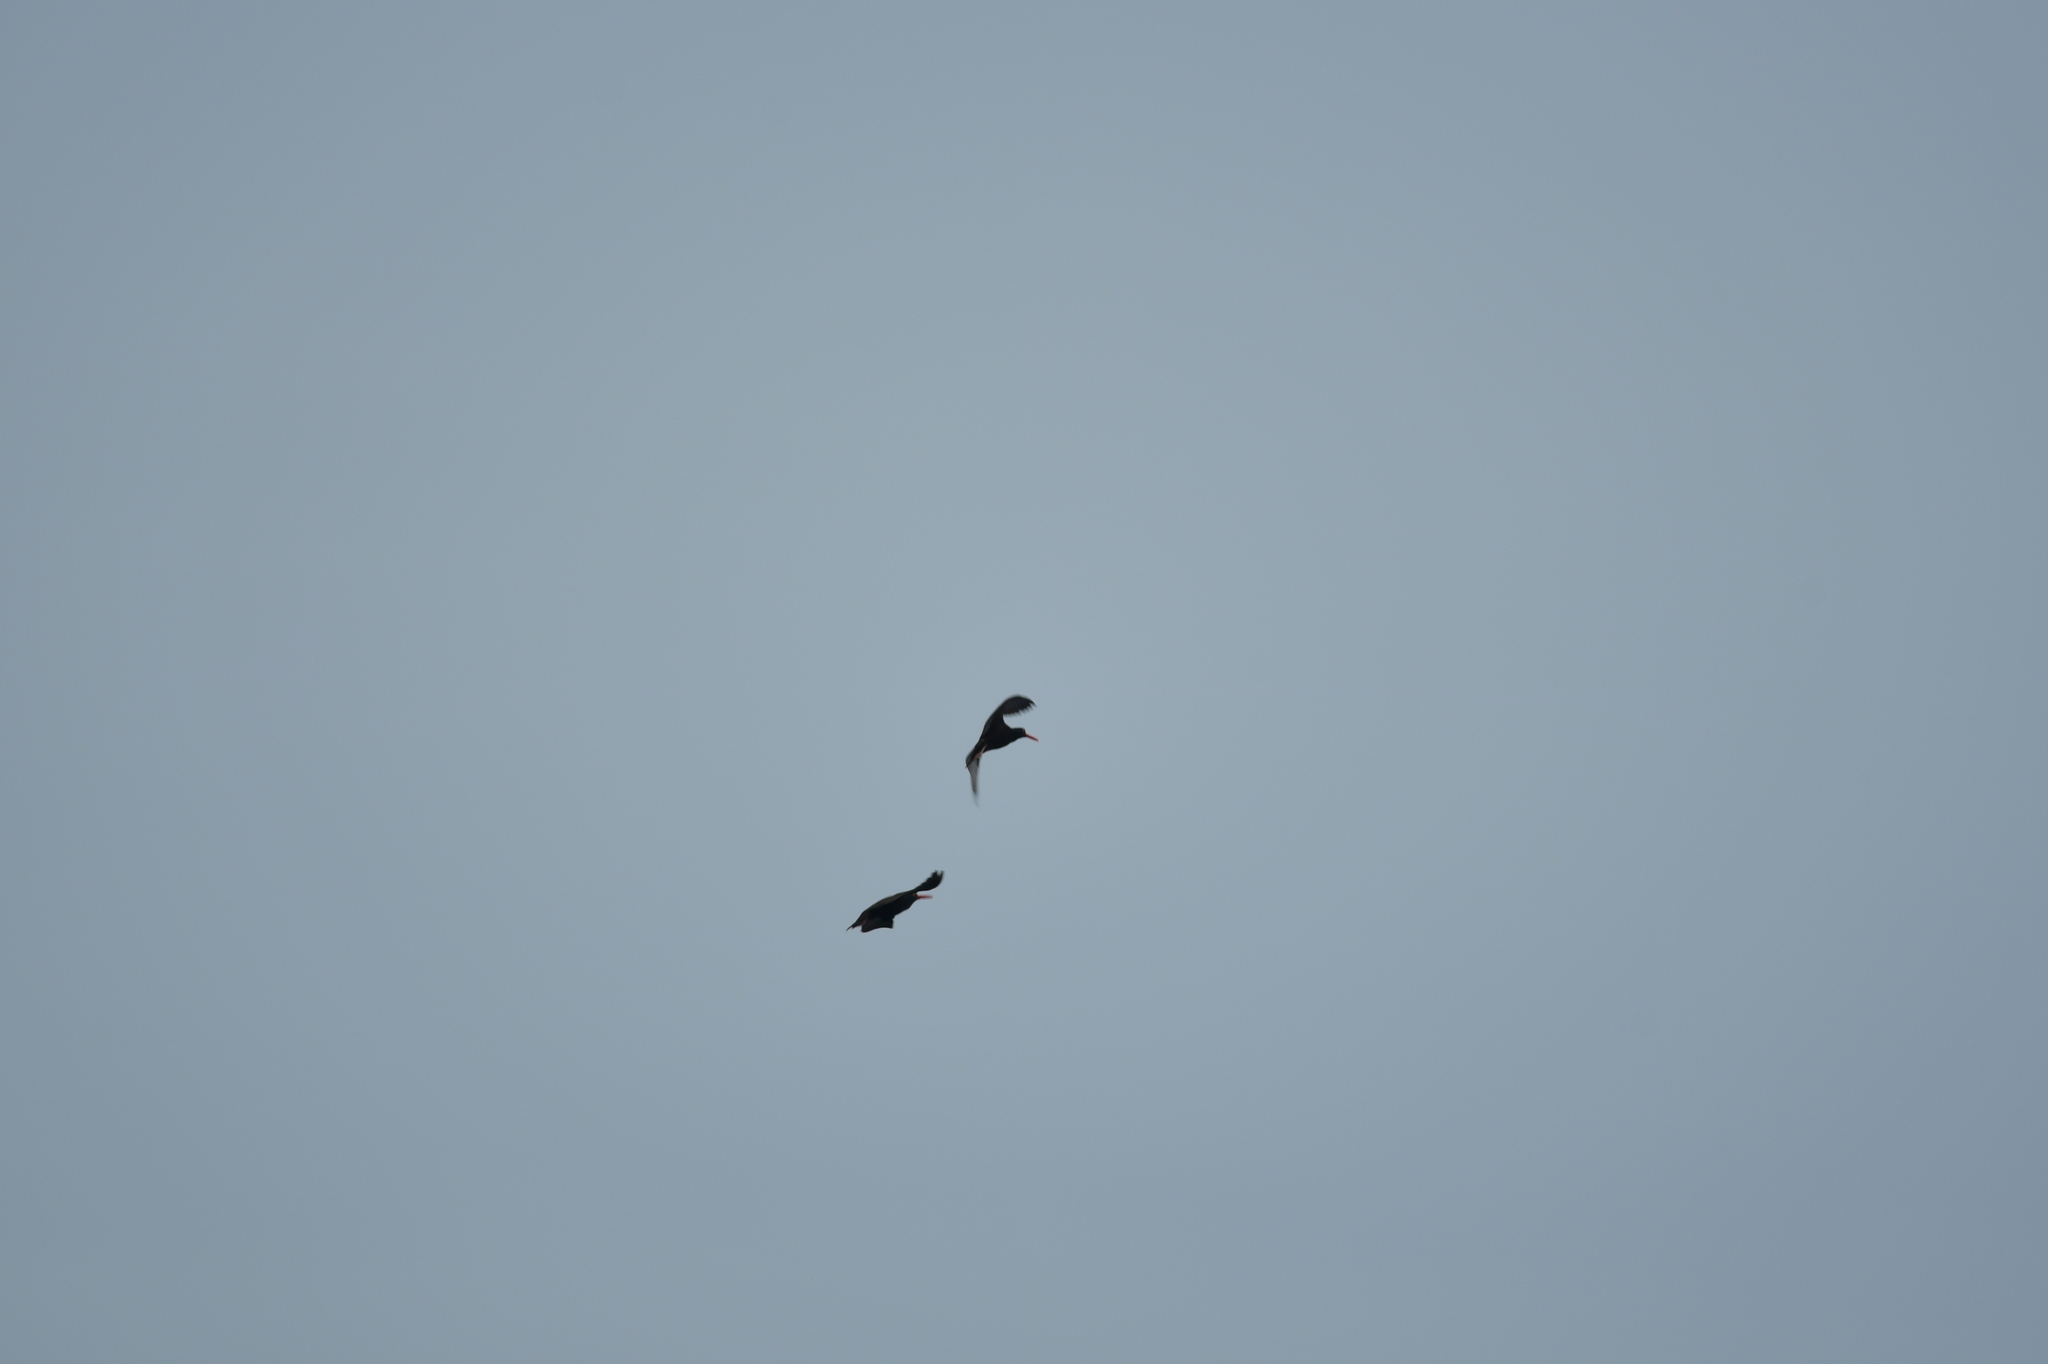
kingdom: Animalia
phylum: Chordata
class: Aves
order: Charadriiformes
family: Haematopodidae
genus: Haematopus
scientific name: Haematopus bachmani
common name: Black oystercatcher
